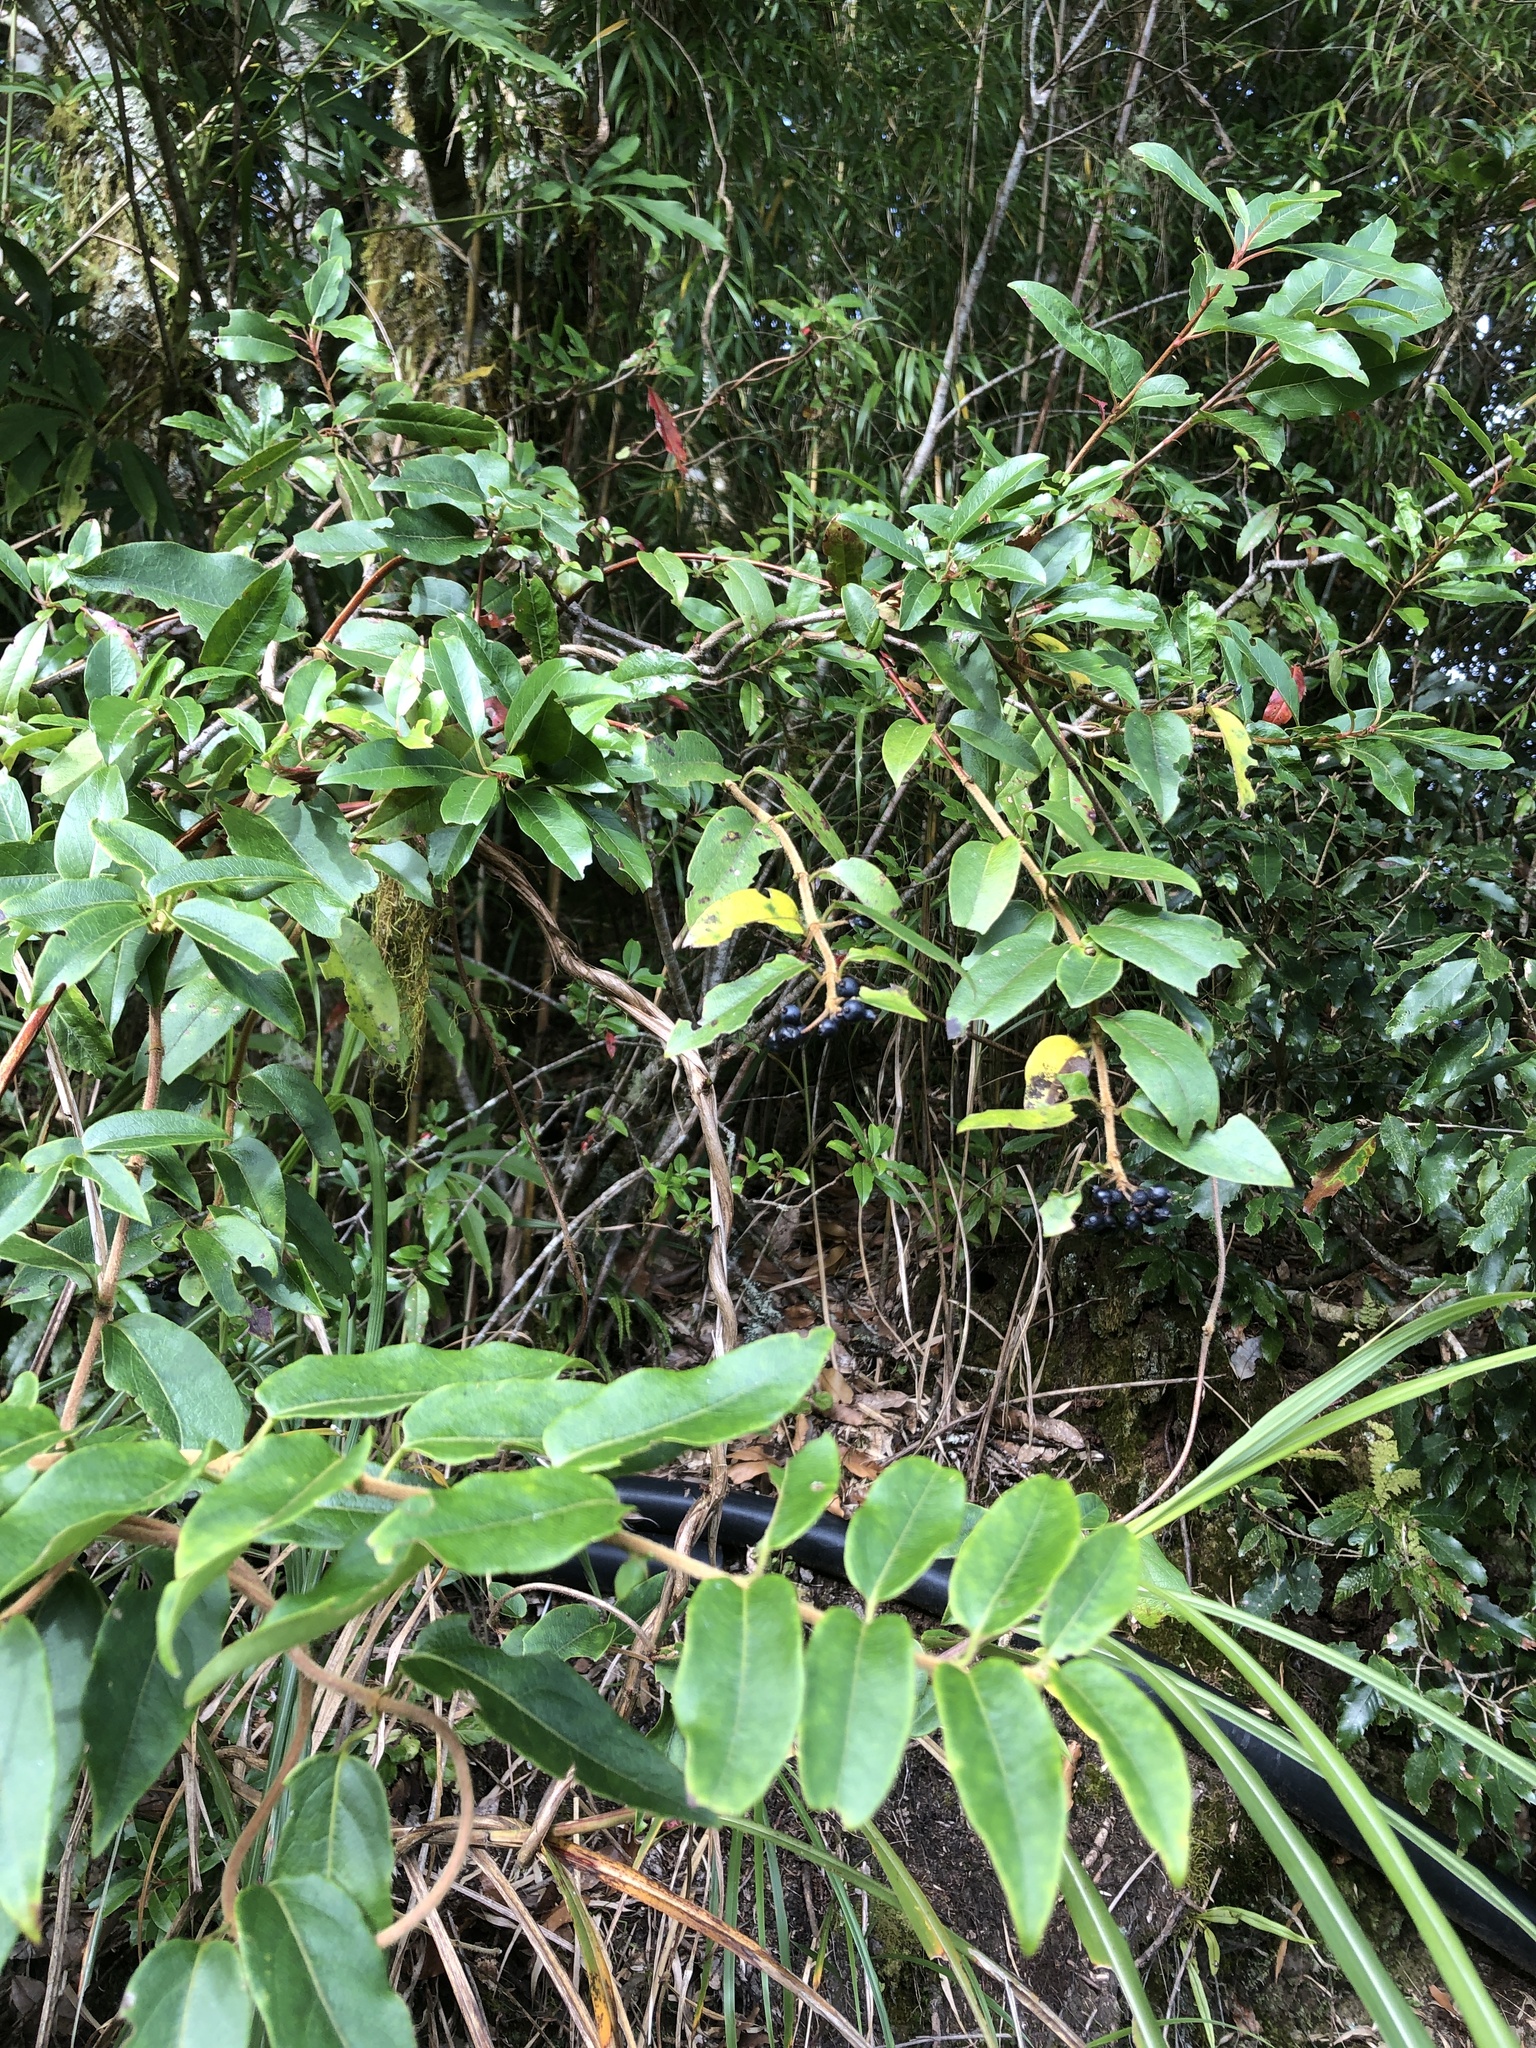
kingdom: Plantae
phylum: Tracheophyta
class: Magnoliopsida
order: Dipsacales
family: Caprifoliaceae
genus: Lonicera
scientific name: Lonicera acuminata
